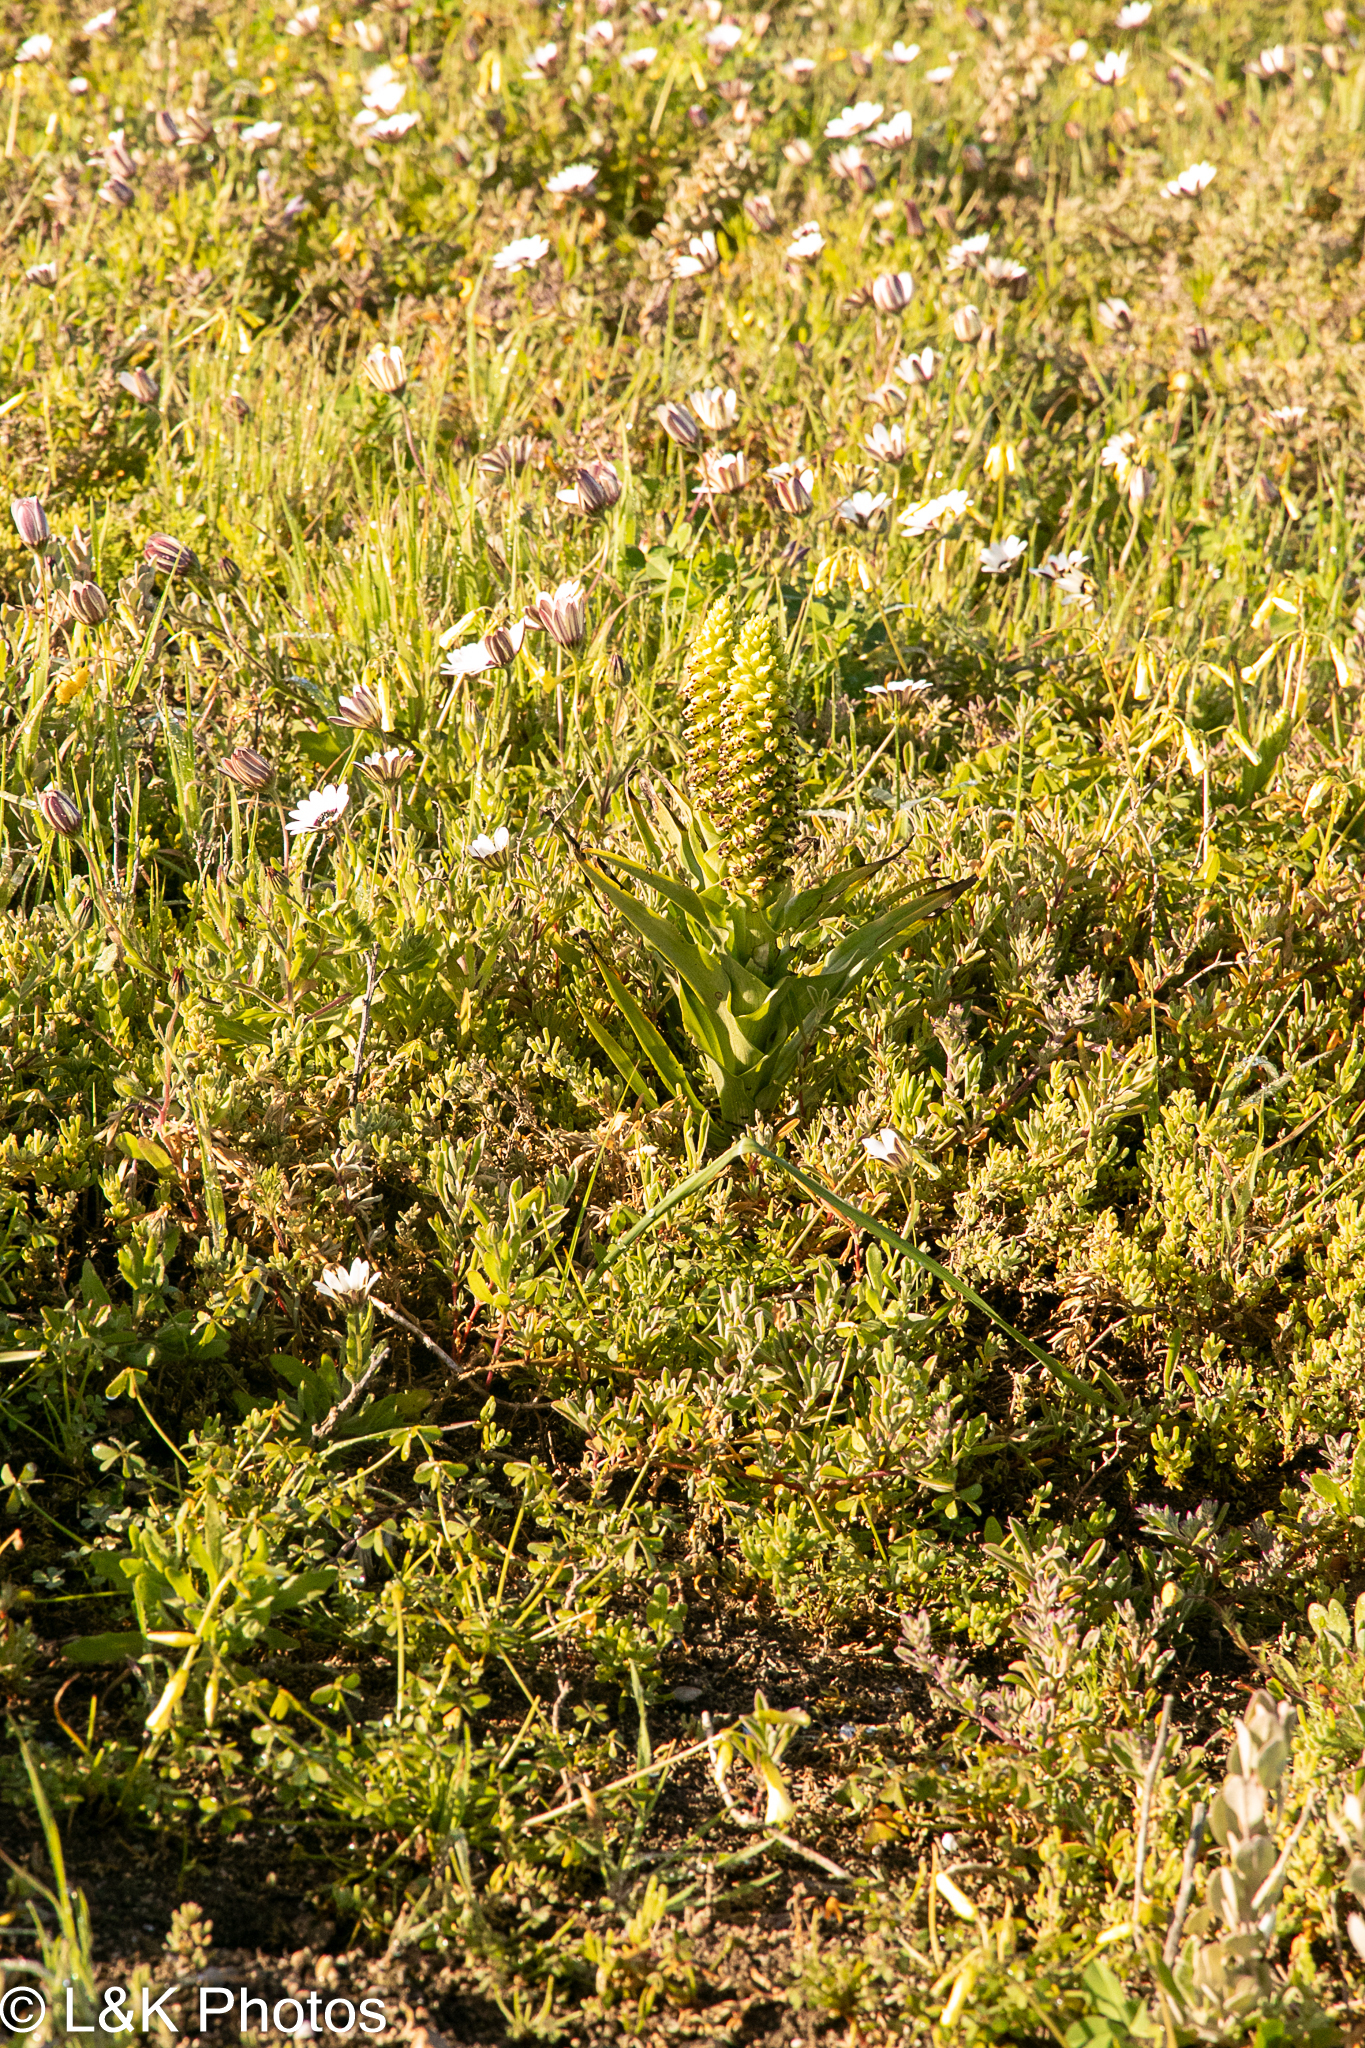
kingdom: Plantae
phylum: Tracheophyta
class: Liliopsida
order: Asparagales
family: Orchidaceae
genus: Corycium
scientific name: Corycium orobanchoides
